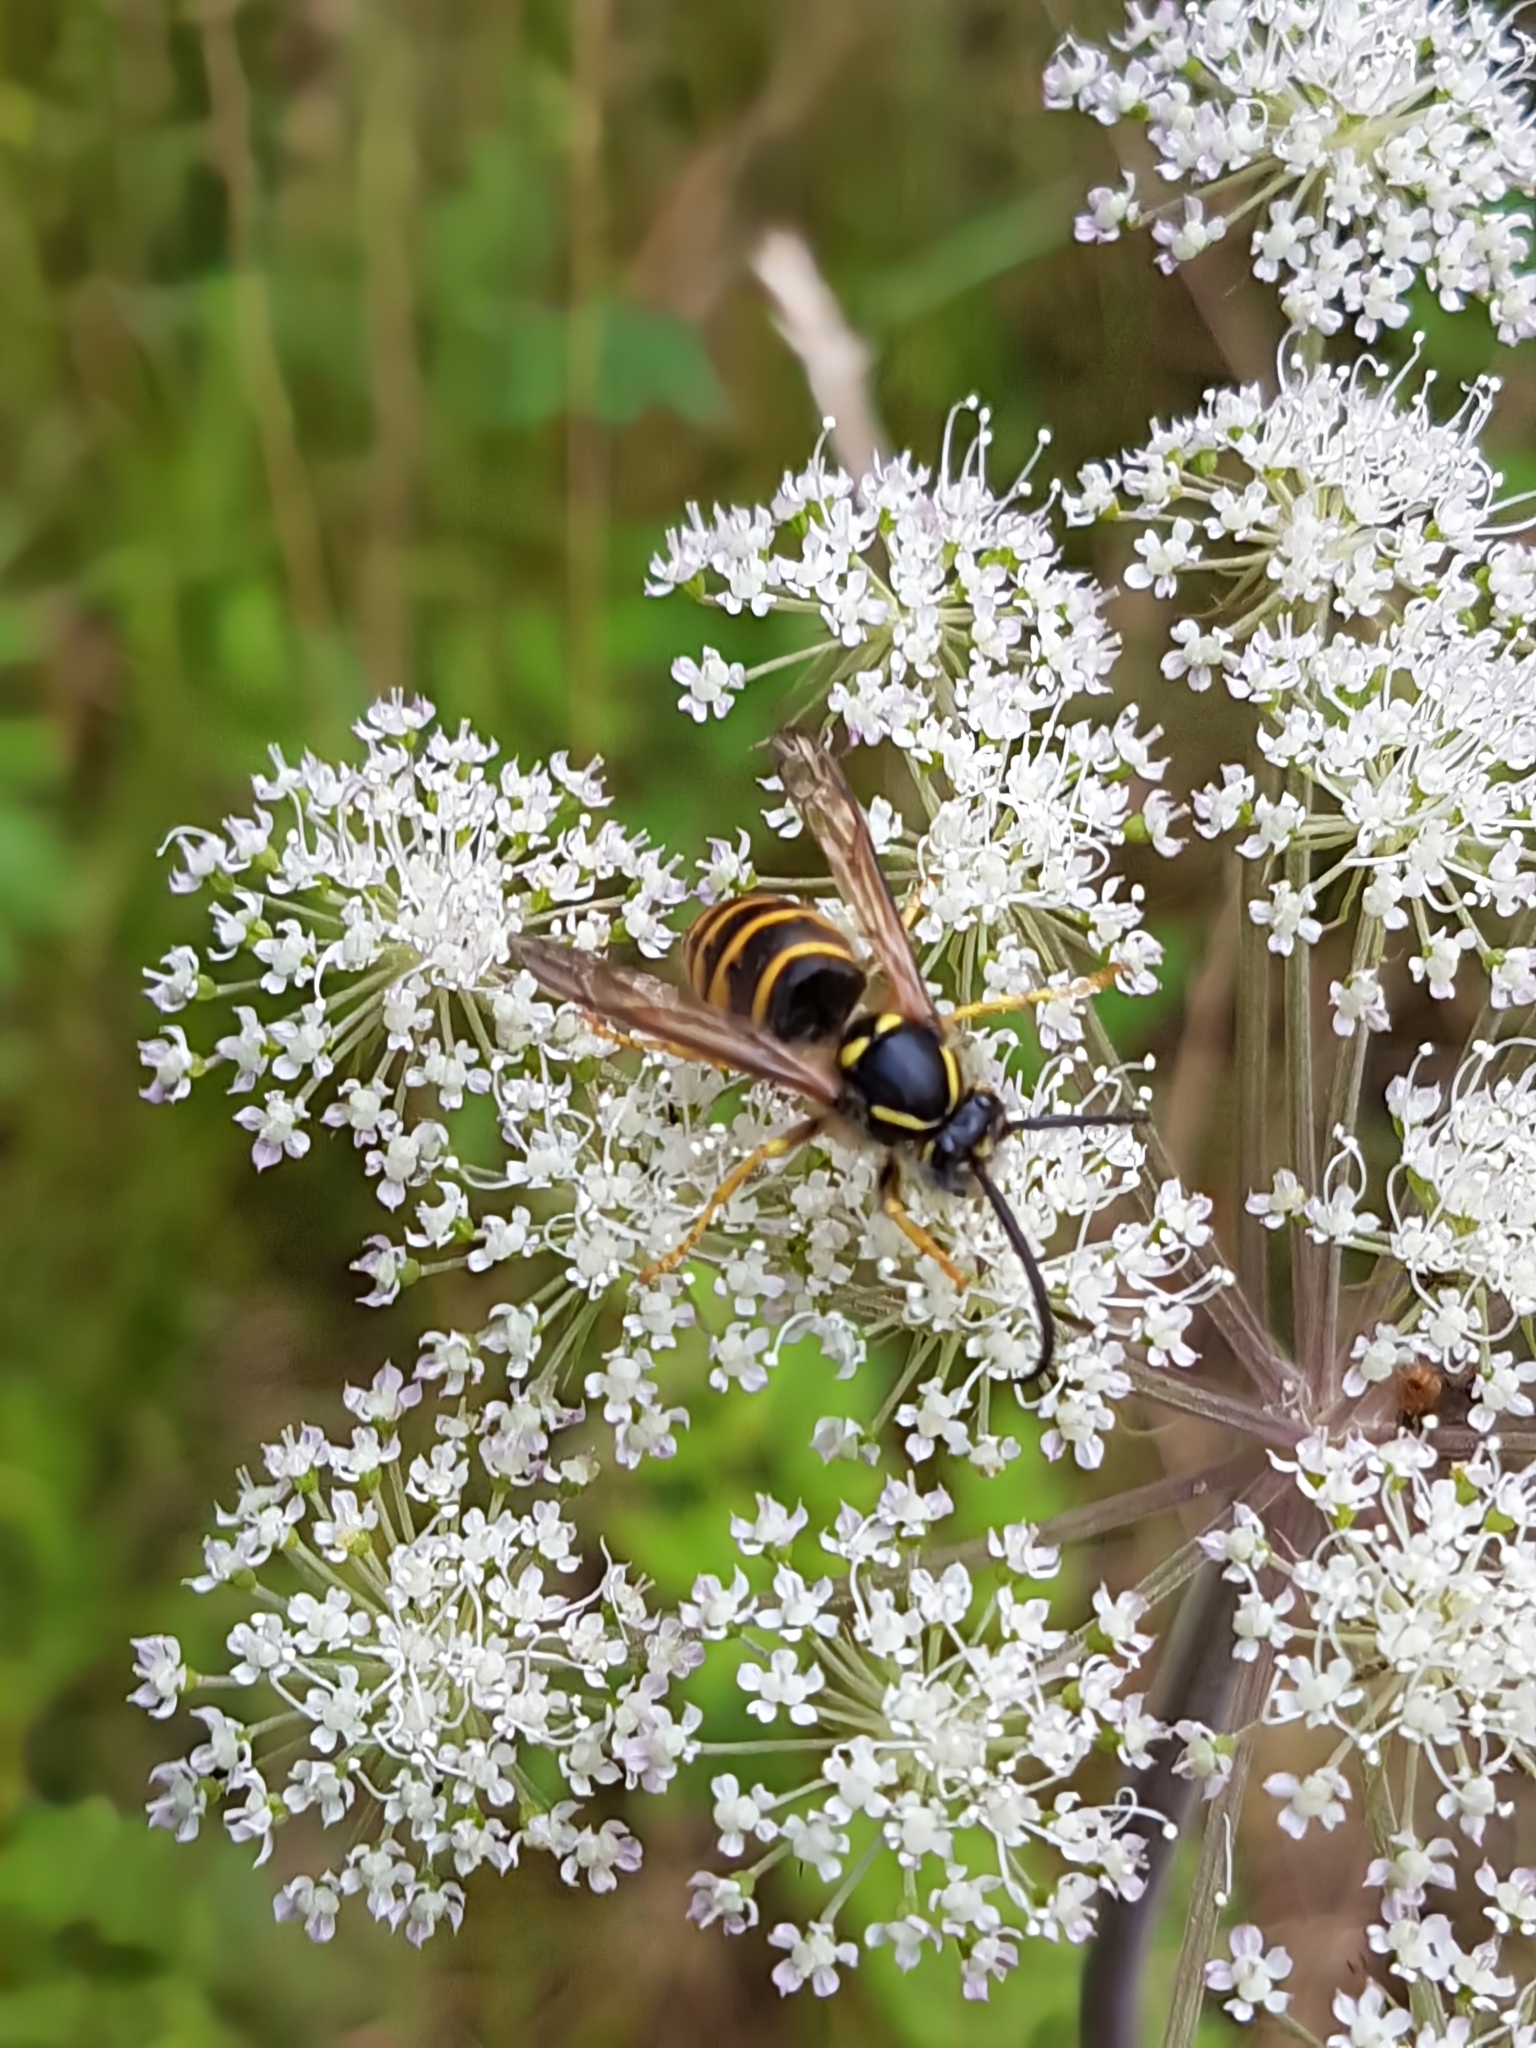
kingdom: Animalia
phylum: Arthropoda
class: Insecta
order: Hymenoptera
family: Vespidae
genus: Dolichovespula
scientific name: Dolichovespula sylvestris
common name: Tree wasp
